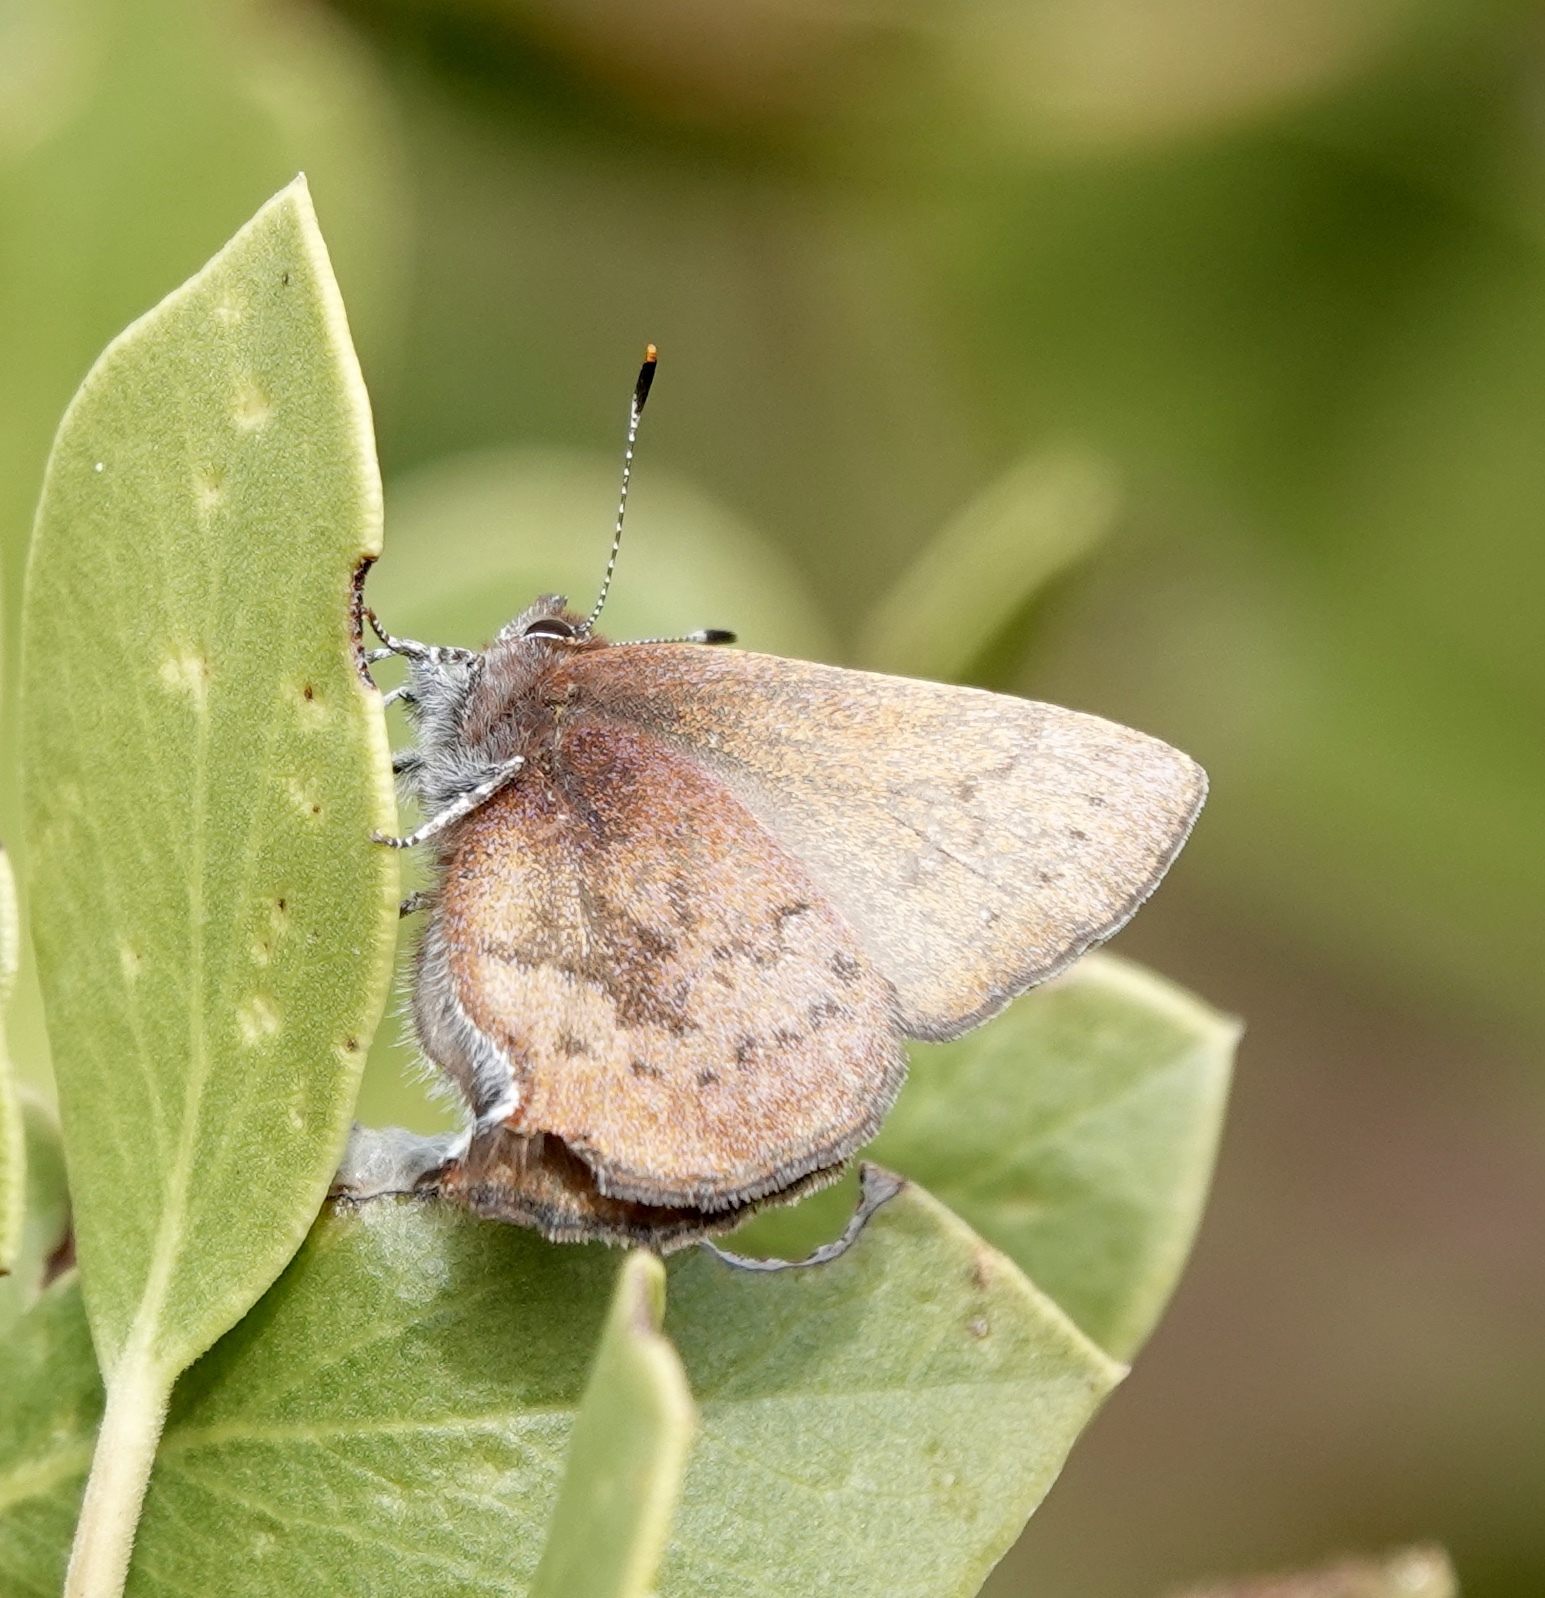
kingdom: Animalia
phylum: Arthropoda
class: Insecta
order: Lepidoptera
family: Lycaenidae
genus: Incisalia
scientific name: Incisalia irioides
